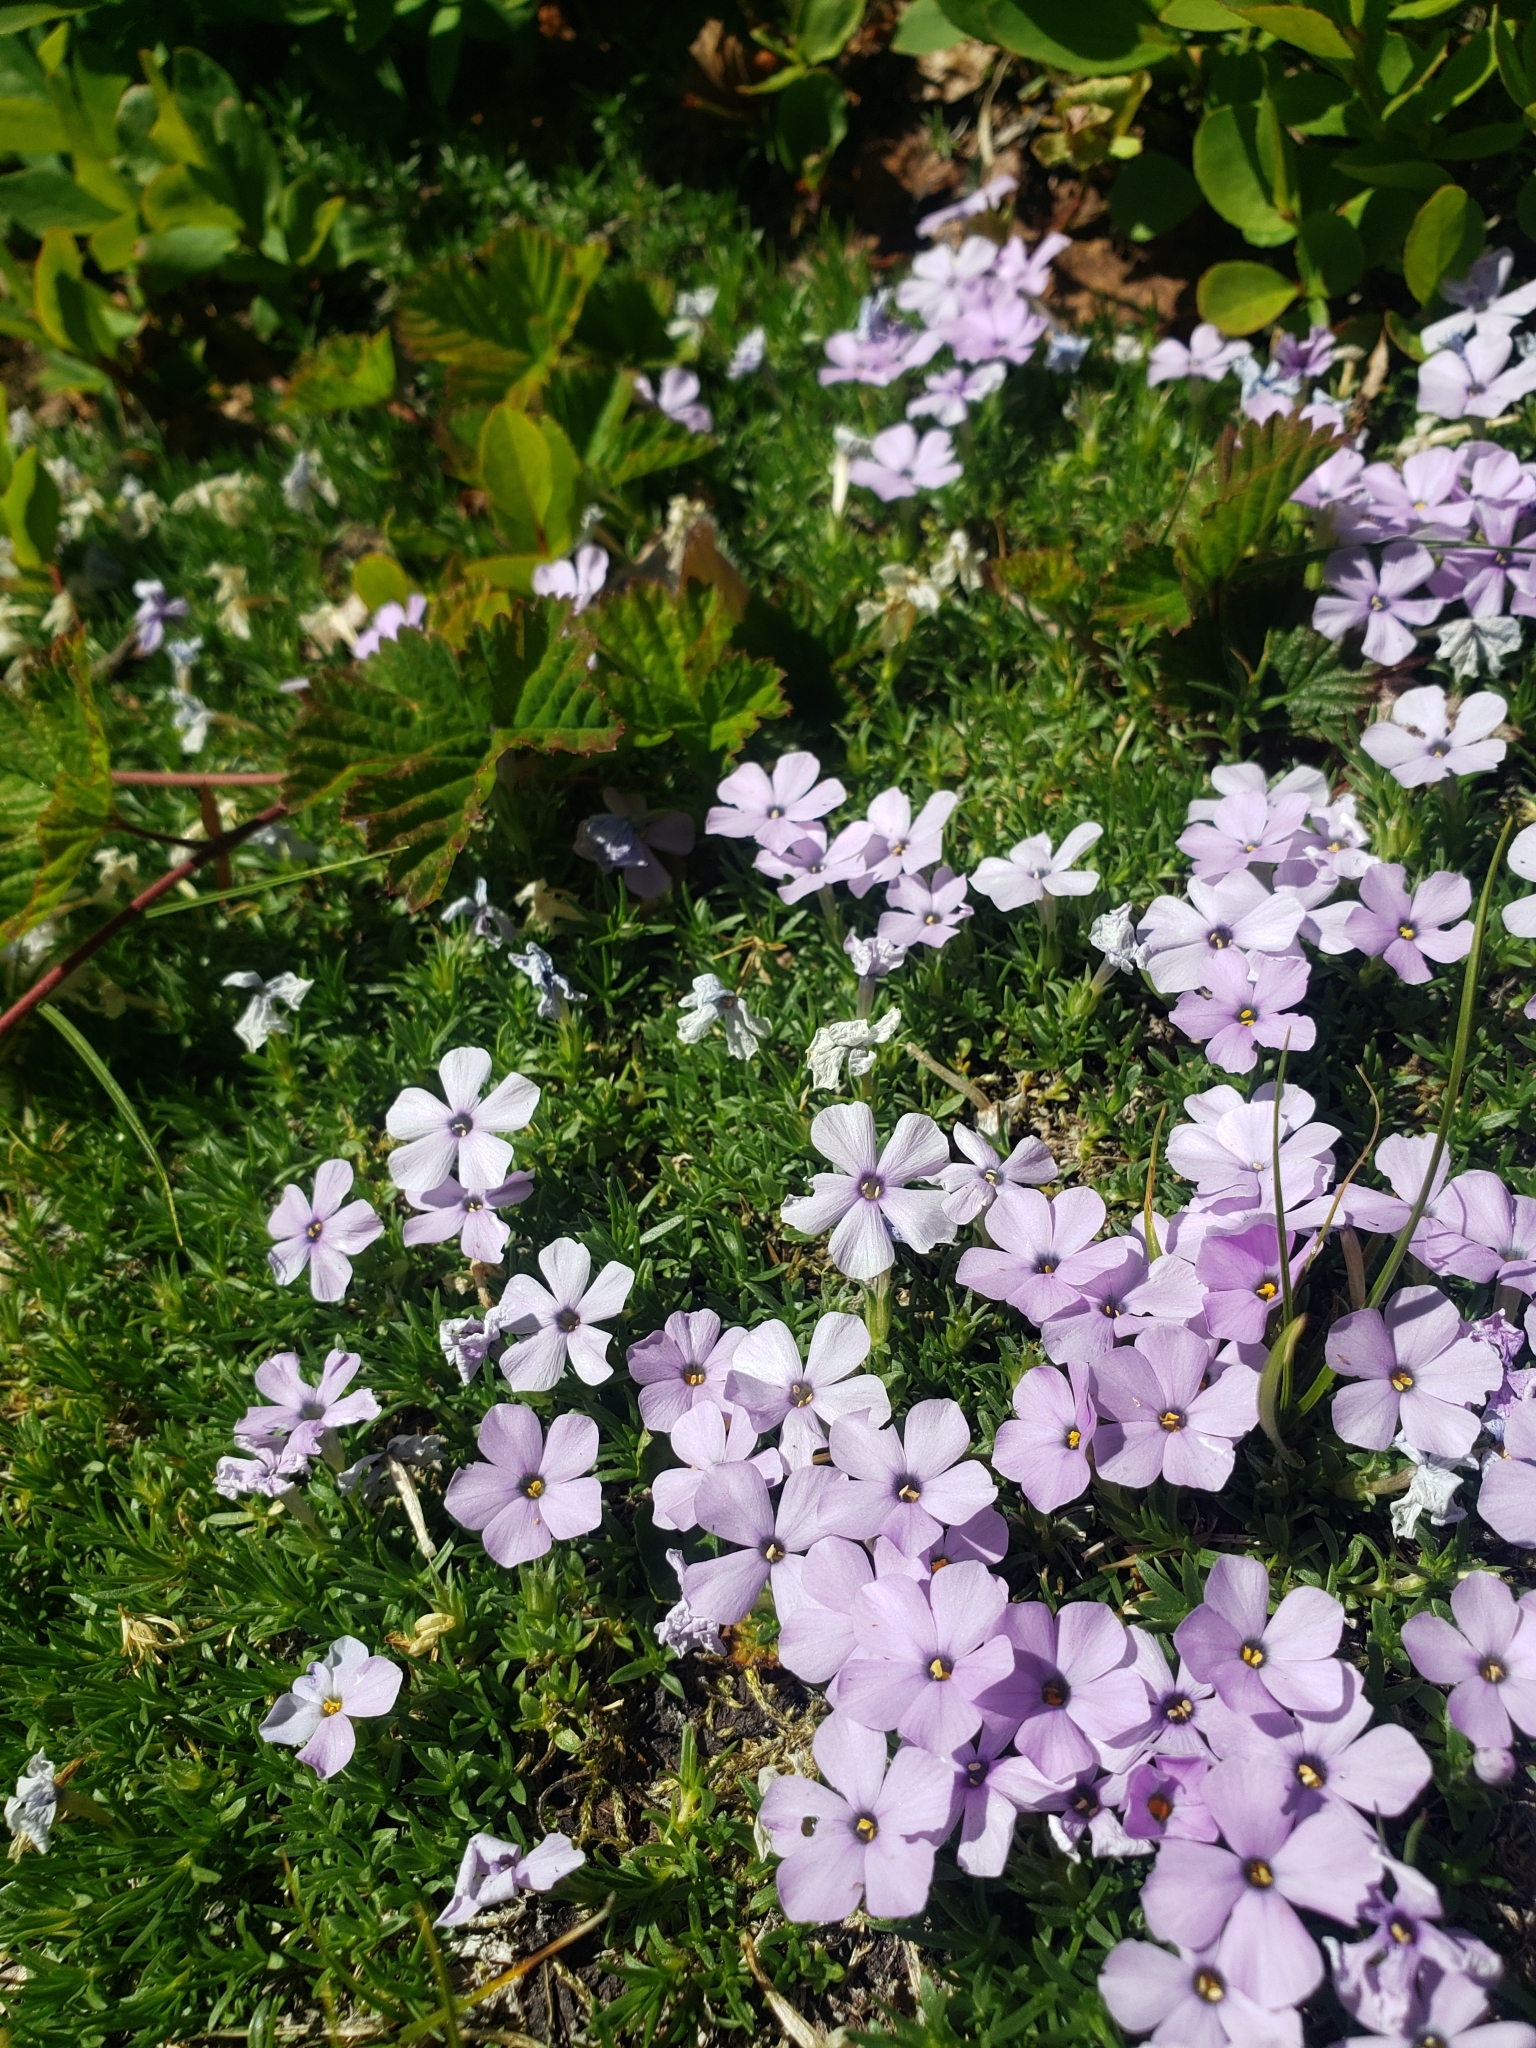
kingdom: Plantae
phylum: Tracheophyta
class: Magnoliopsida
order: Ericales
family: Polemoniaceae
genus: Phlox
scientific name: Phlox diffusa
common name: Mat phlox
